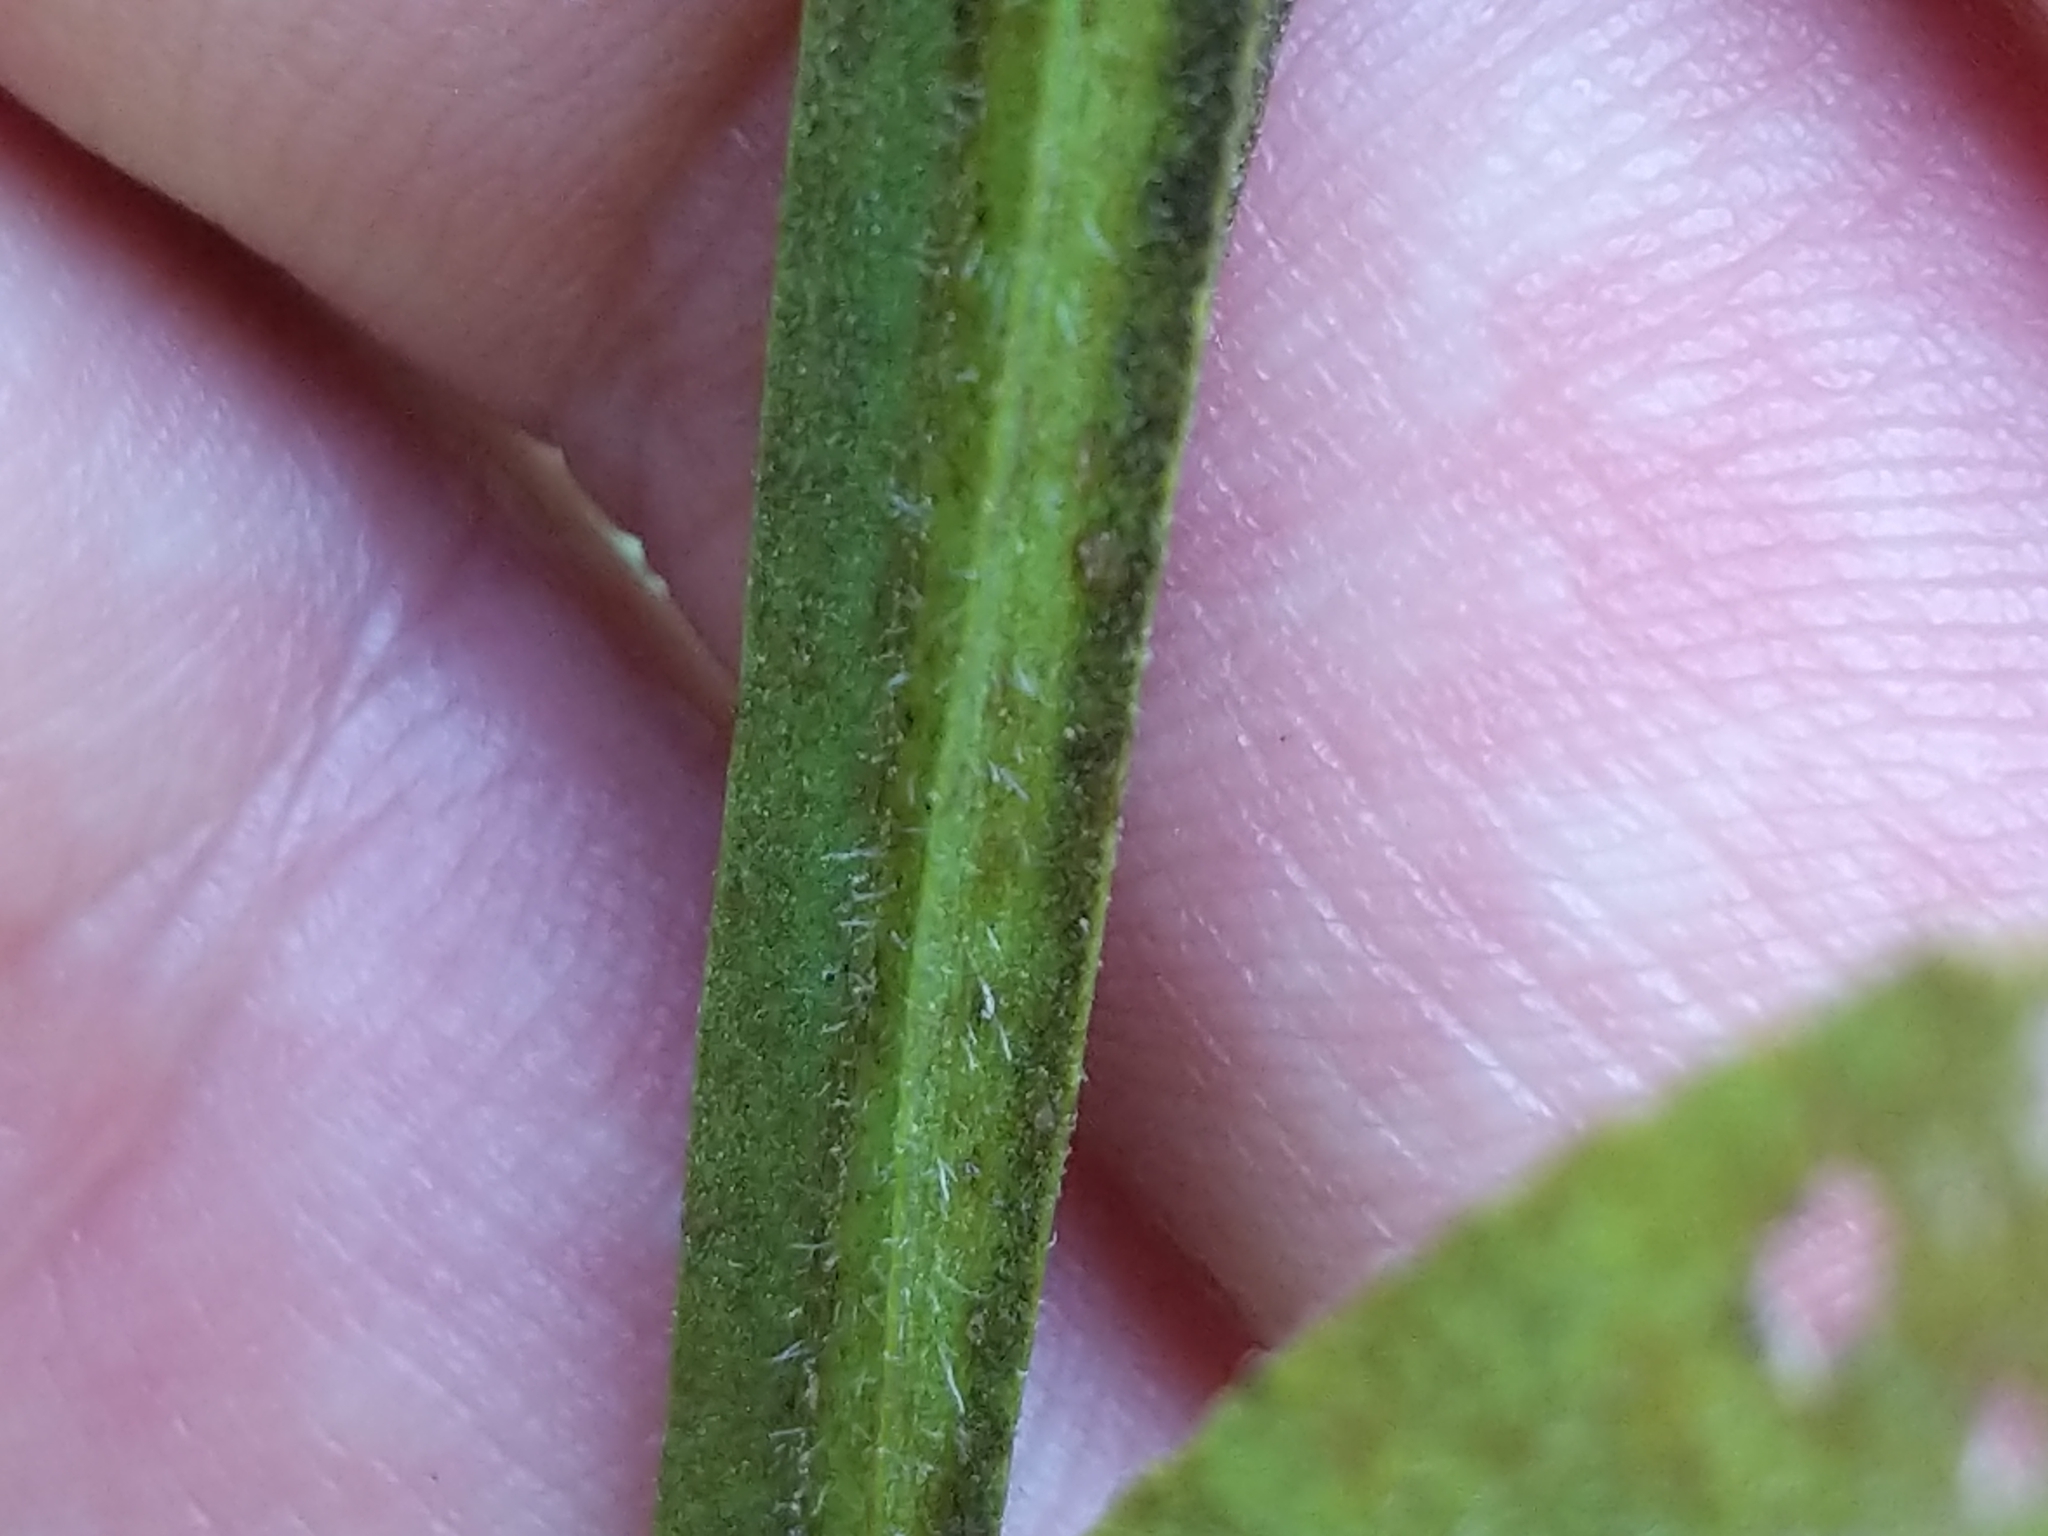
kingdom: Plantae
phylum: Tracheophyta
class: Magnoliopsida
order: Asterales
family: Asteraceae
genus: Helenium
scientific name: Helenium flexuosum
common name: Naked-flowered sneezeweed
